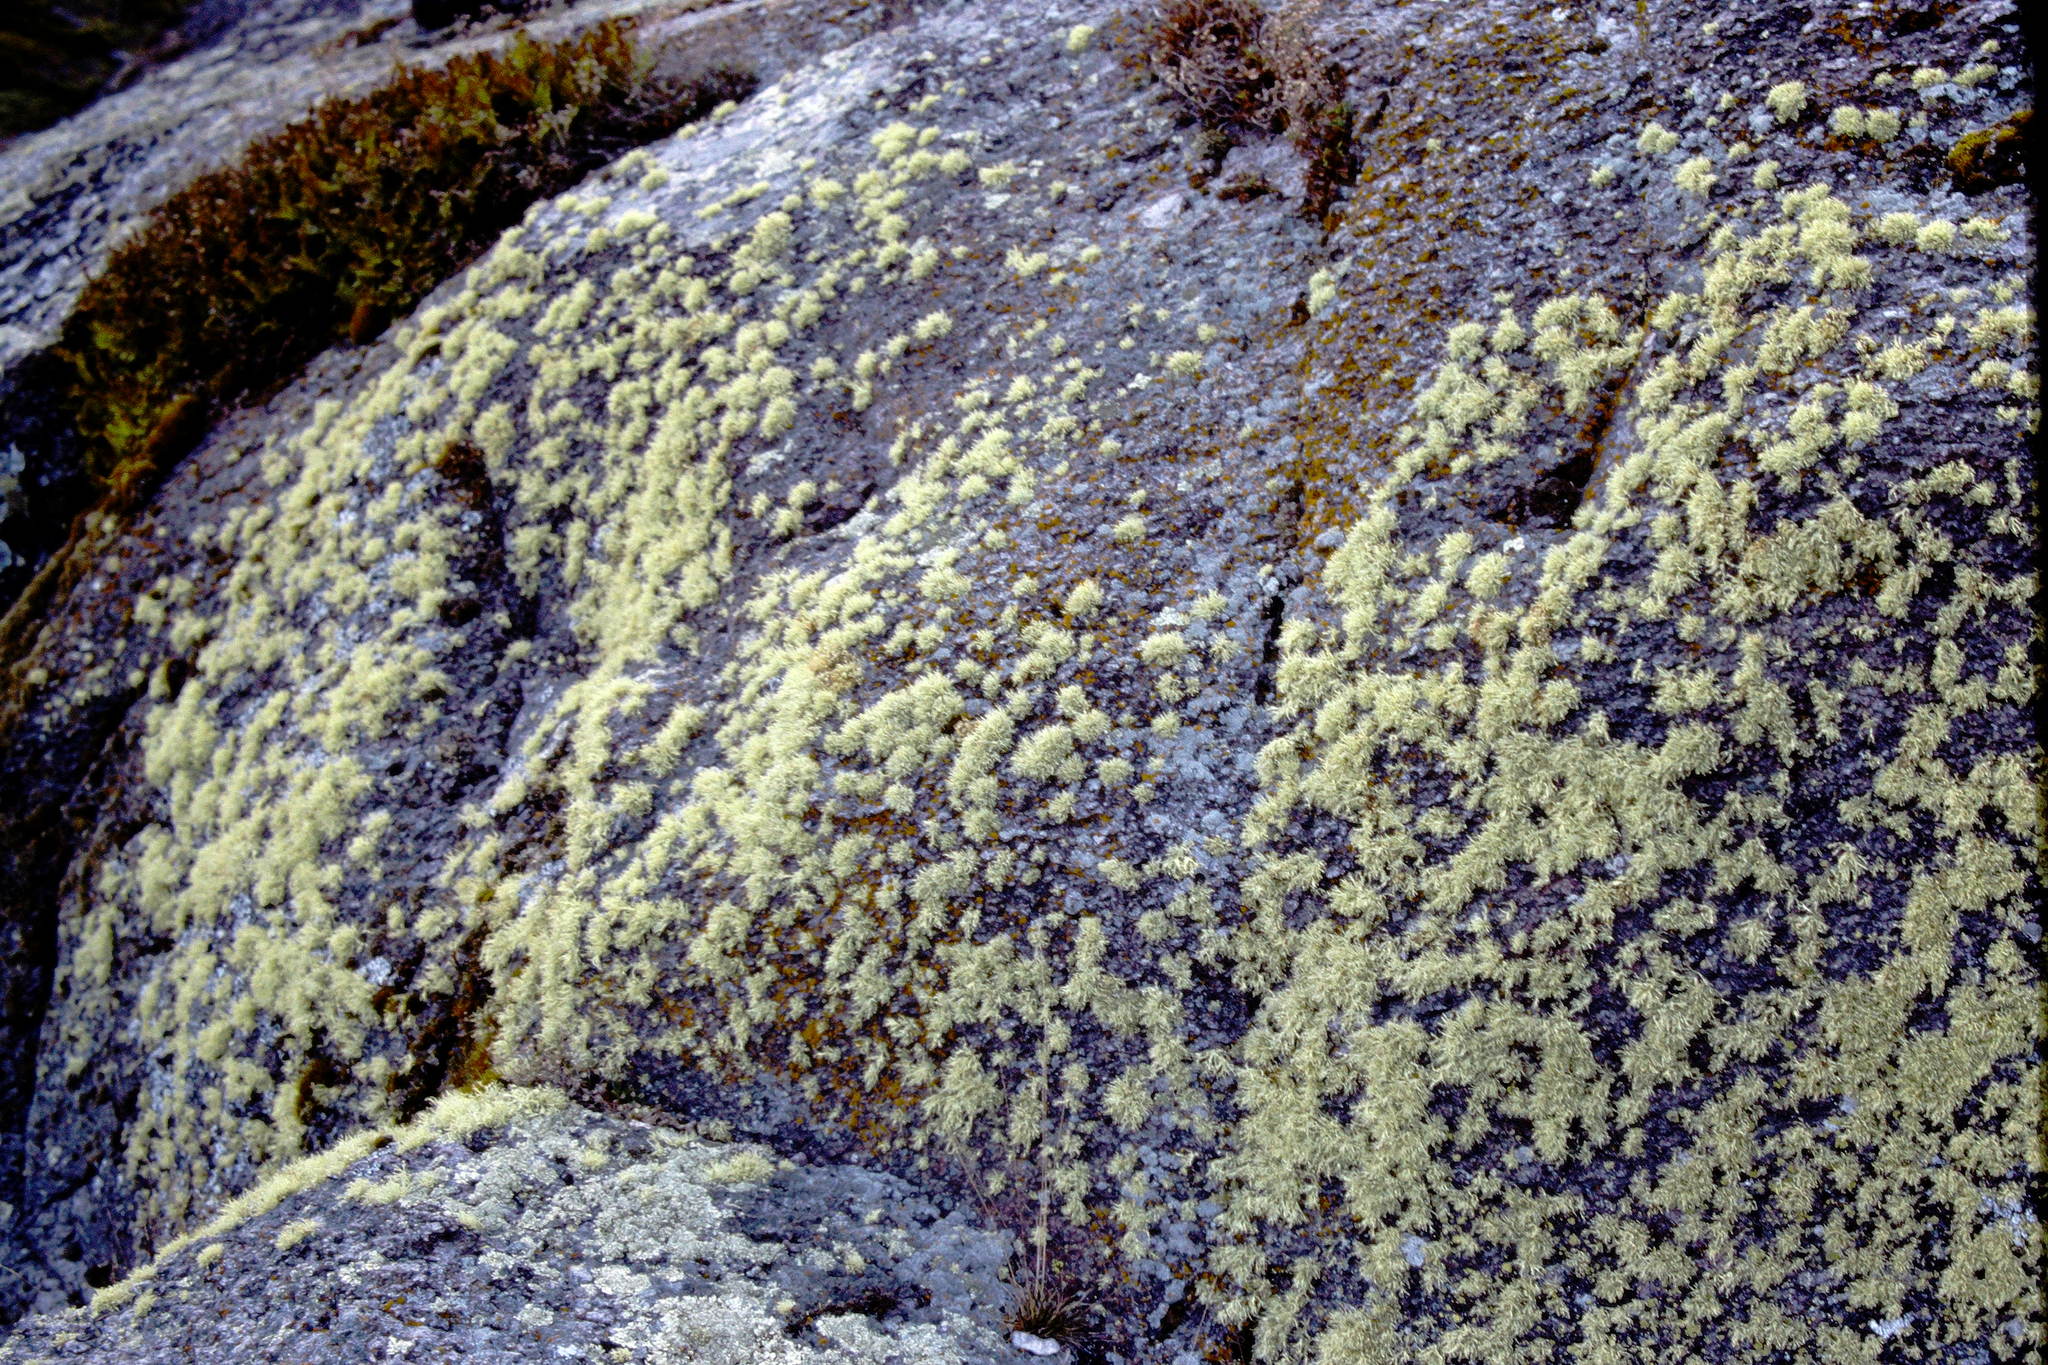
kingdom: Fungi
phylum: Ascomycota
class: Lecanoromycetes
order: Lecanorales
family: Ramalinaceae
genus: Ramalina
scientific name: Ramalina intermedia
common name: Rock bushy lichen
